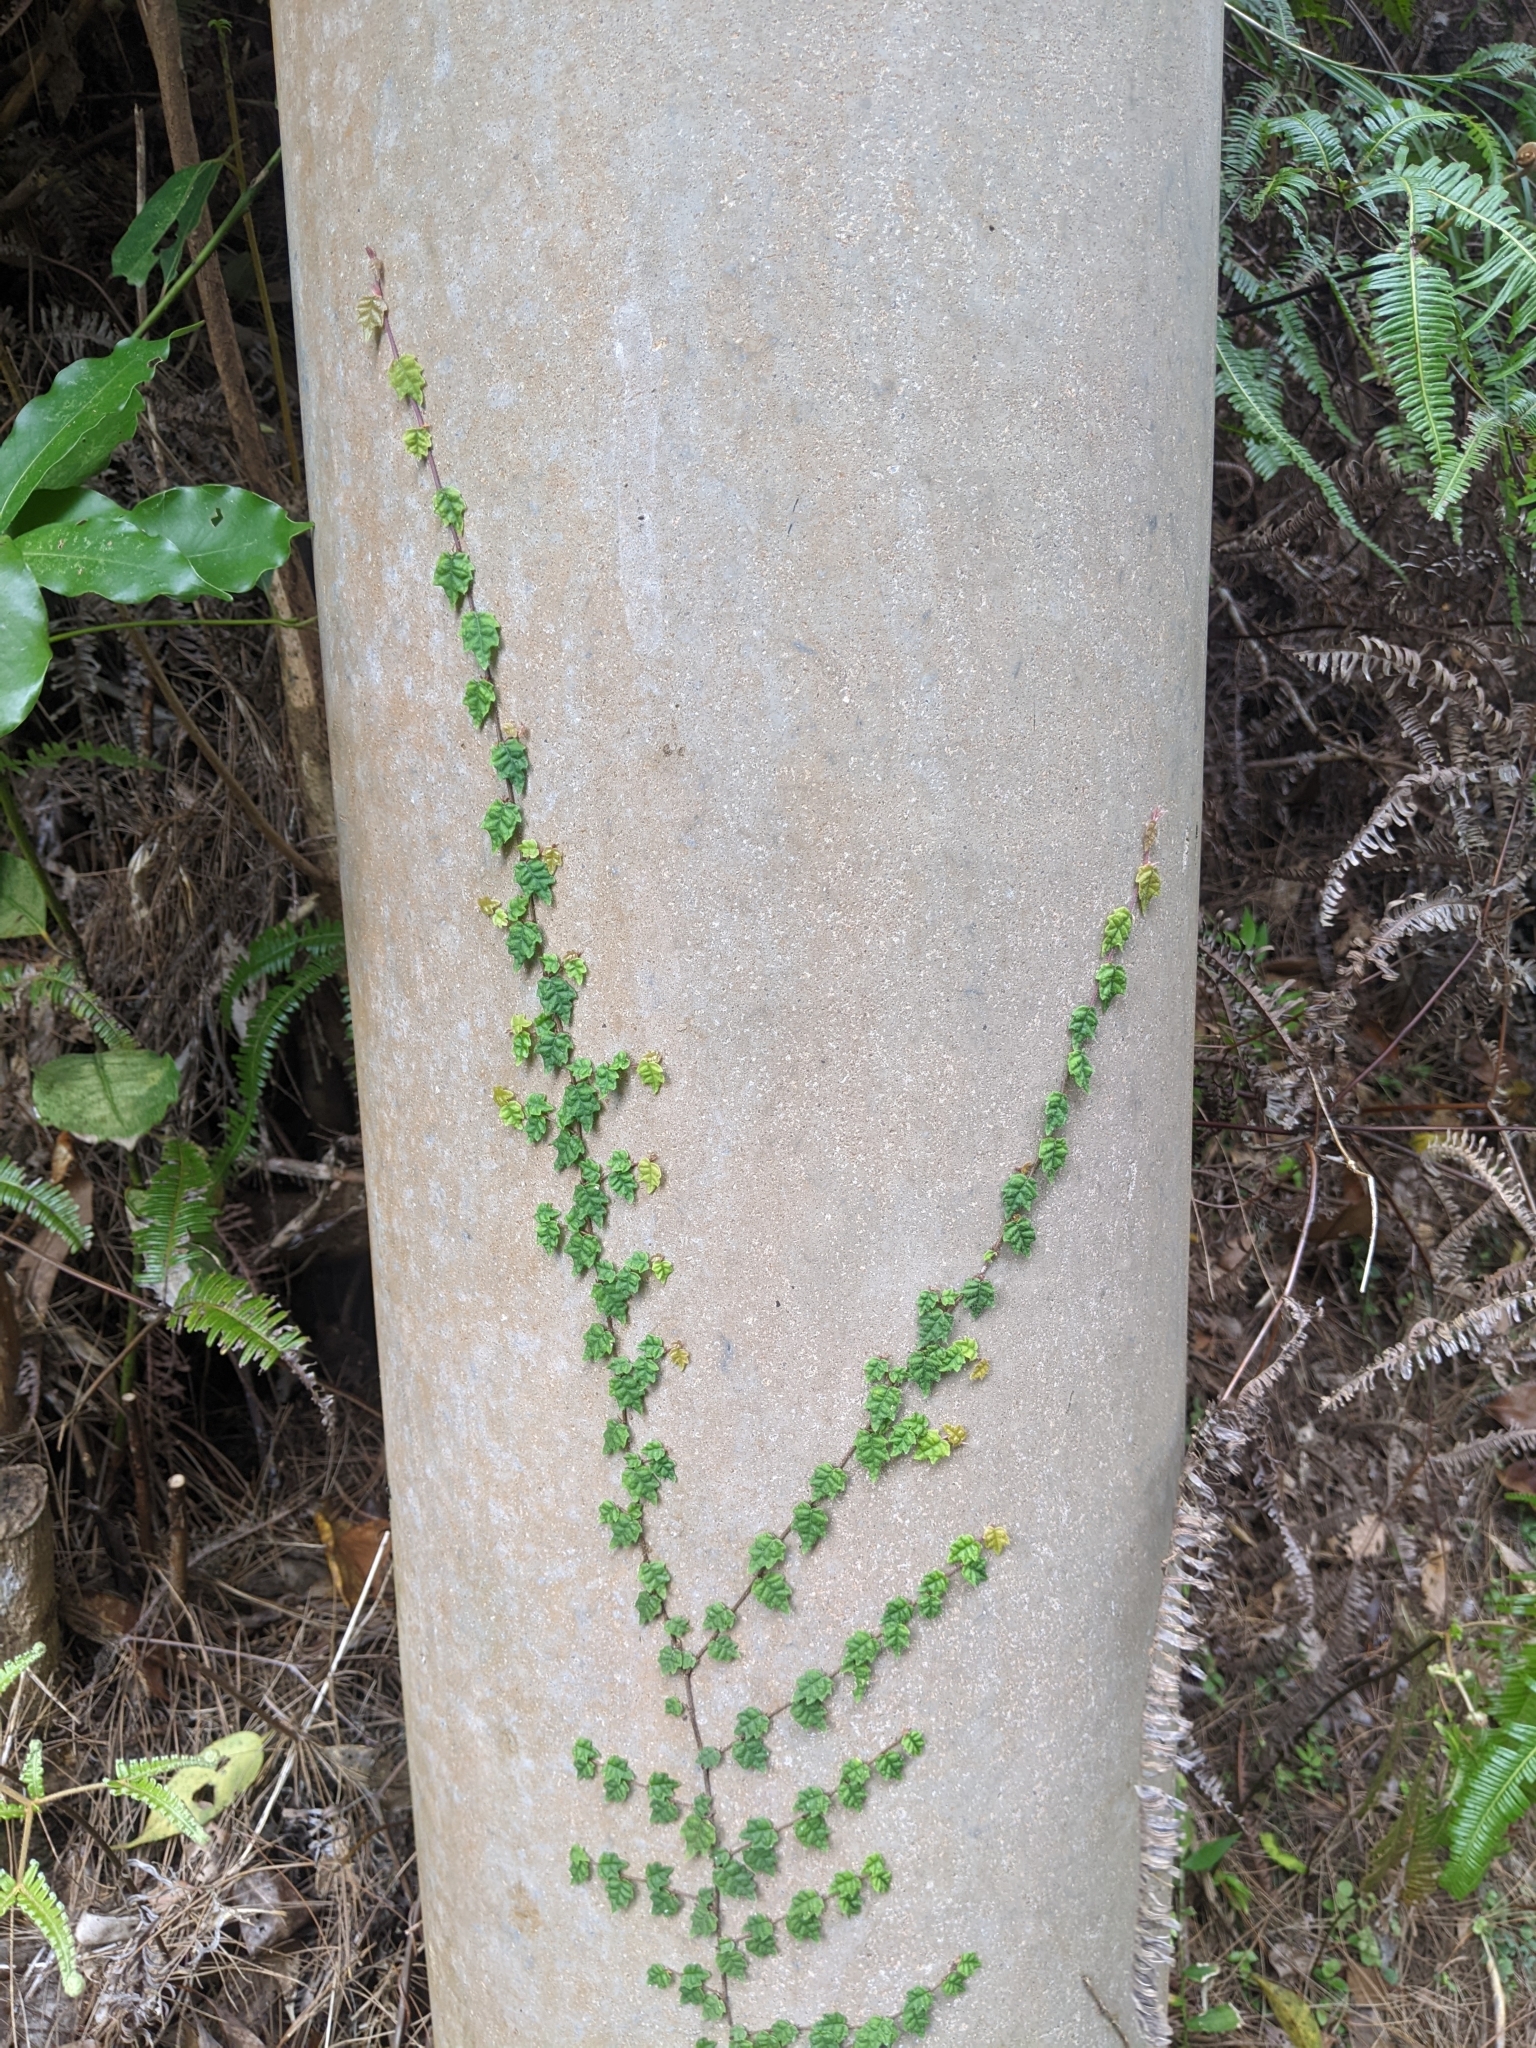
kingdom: Plantae
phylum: Tracheophyta
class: Magnoliopsida
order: Rosales
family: Moraceae
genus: Ficus
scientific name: Ficus sarmentosa
